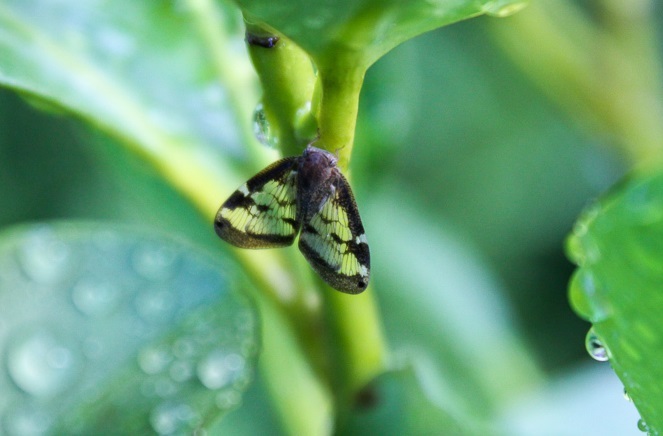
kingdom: Animalia
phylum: Arthropoda
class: Insecta
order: Hemiptera
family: Ricaniidae
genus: Scolypopa
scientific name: Scolypopa australis
